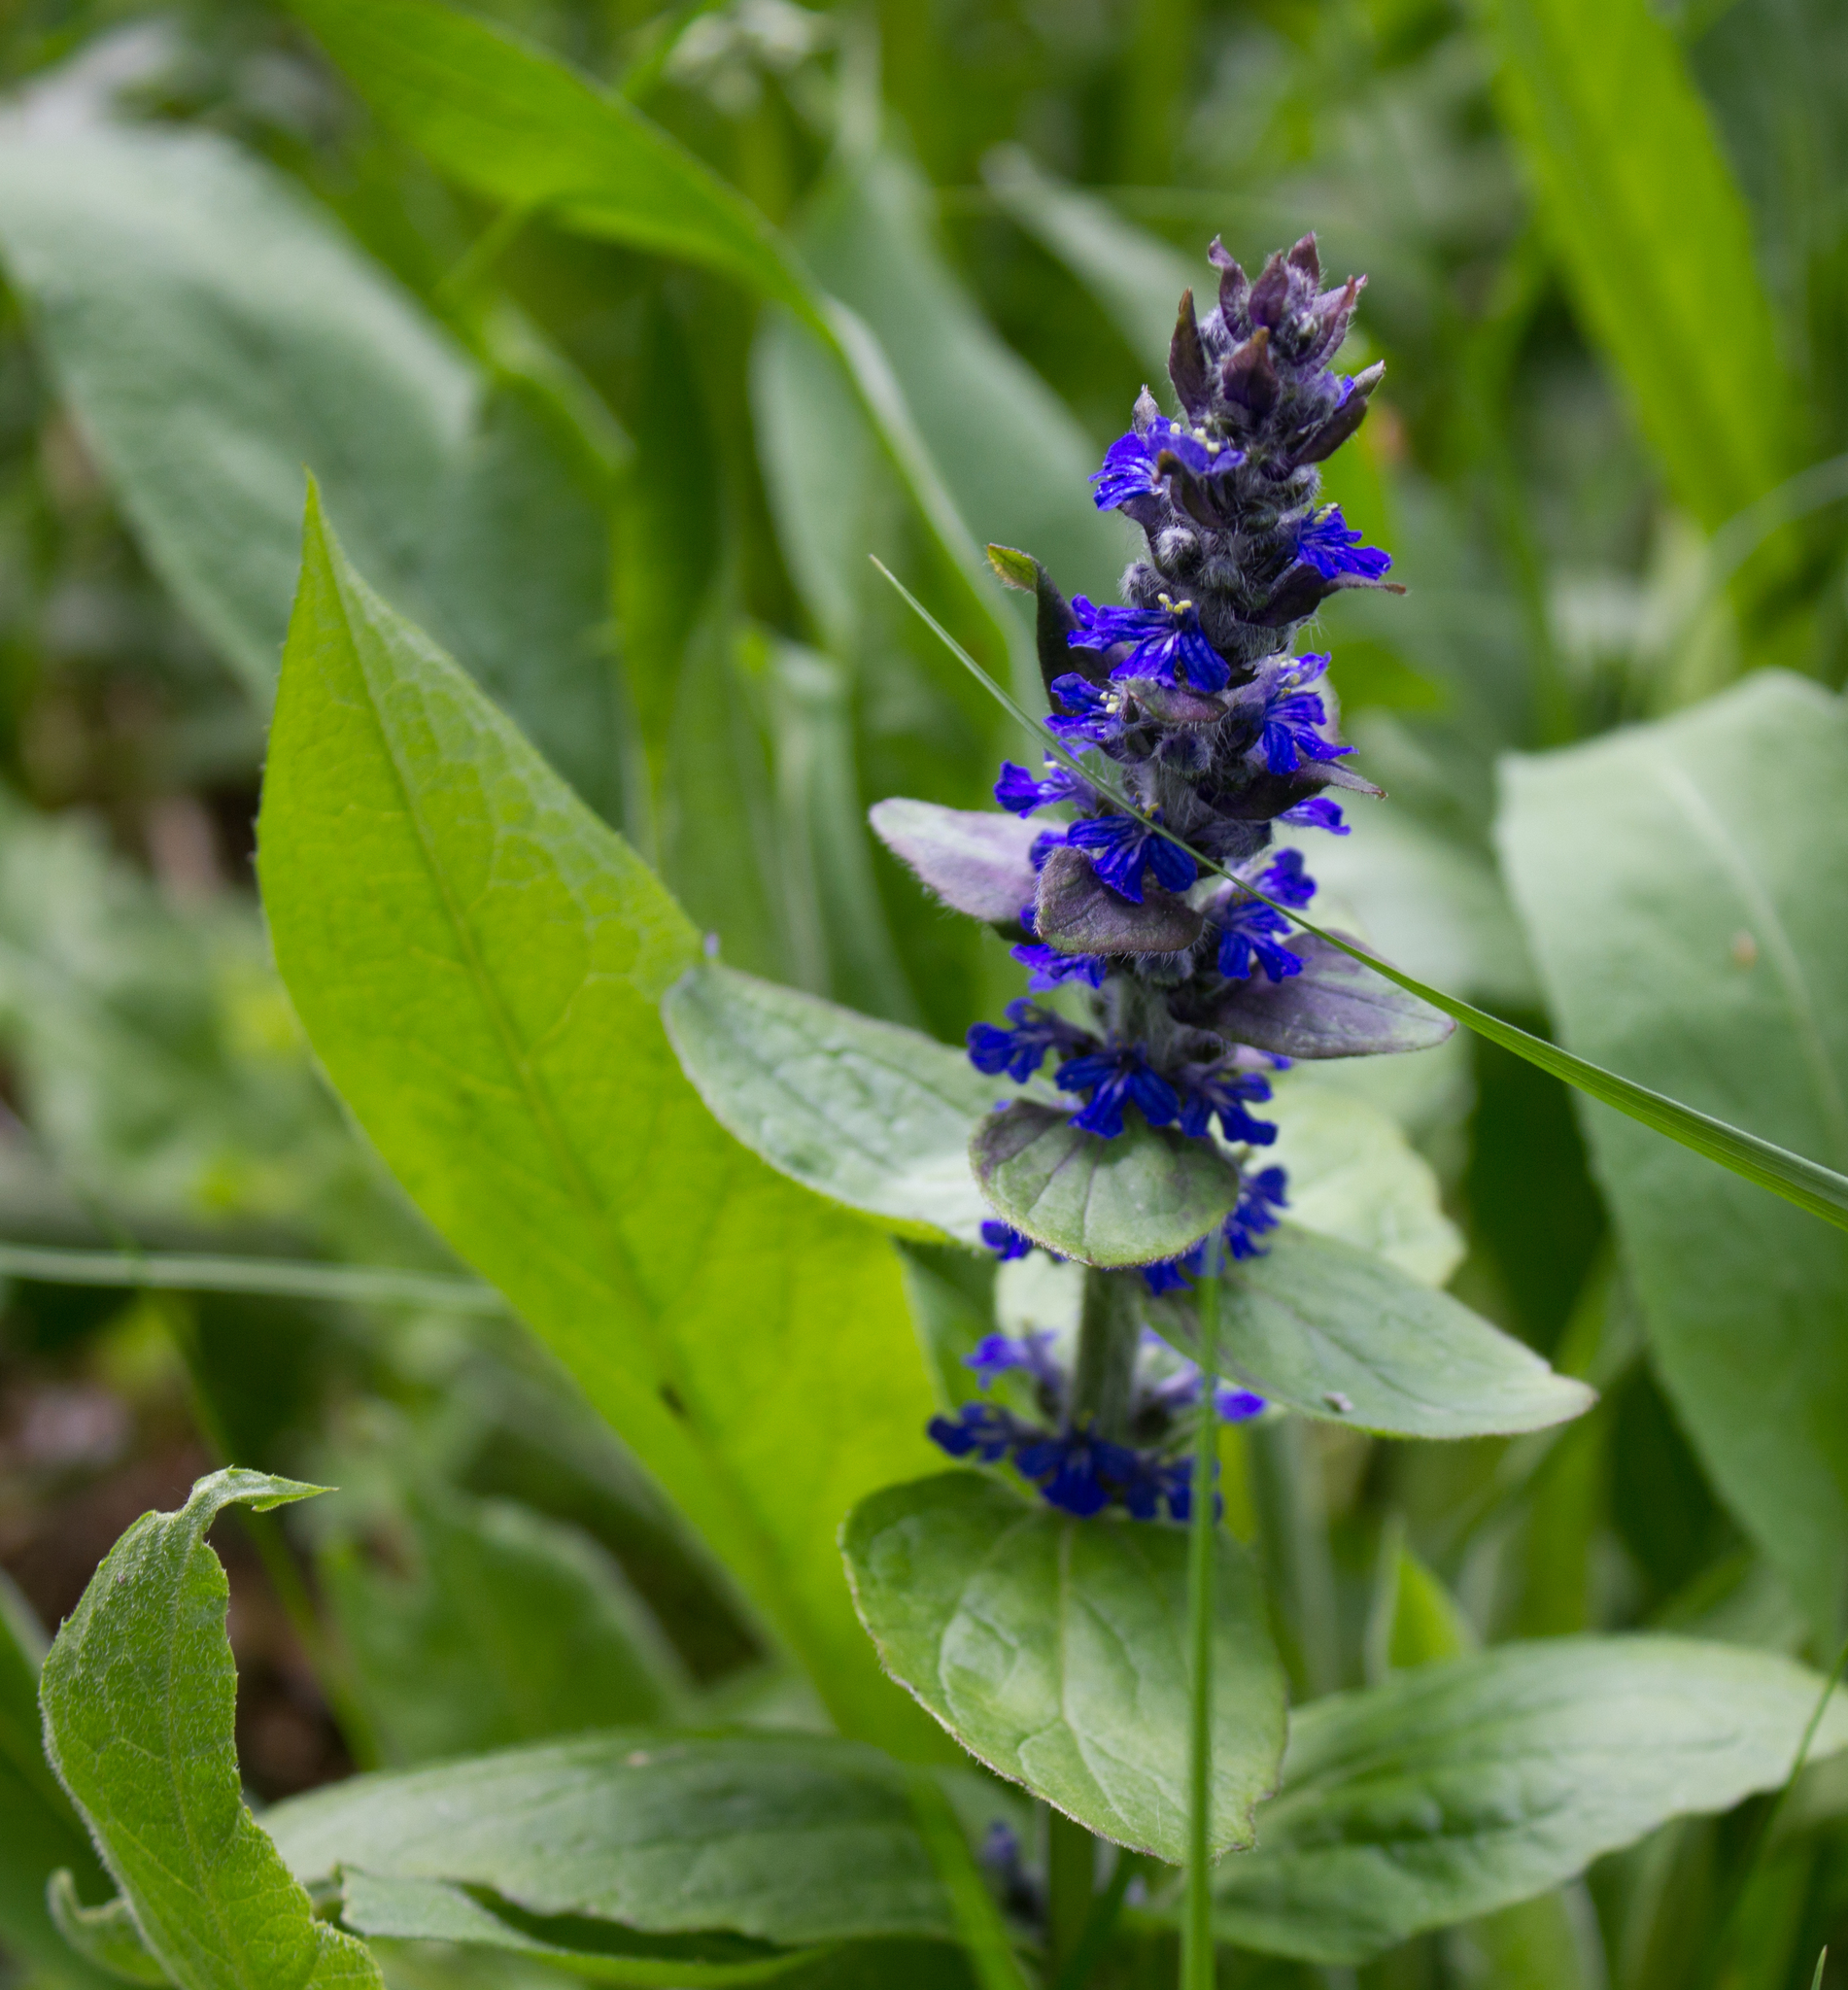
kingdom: Plantae
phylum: Tracheophyta
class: Magnoliopsida
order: Lamiales
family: Lamiaceae
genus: Ajuga
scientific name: Ajuga reptans
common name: Bugle
